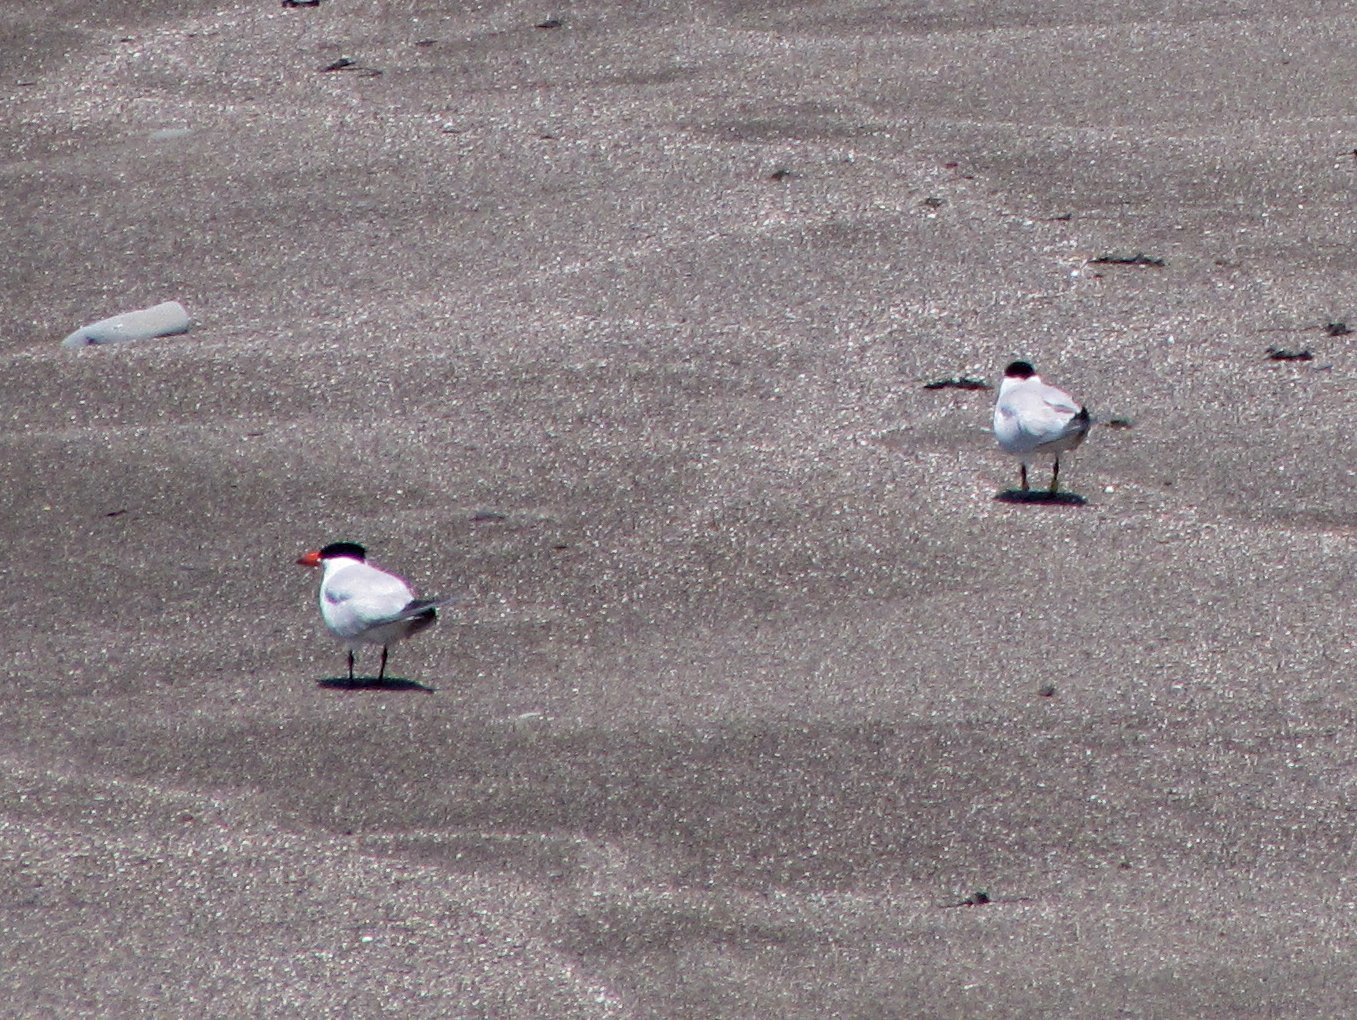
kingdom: Animalia
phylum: Chordata
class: Aves
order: Charadriiformes
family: Laridae
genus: Hydroprogne
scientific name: Hydroprogne caspia
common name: Caspian tern
